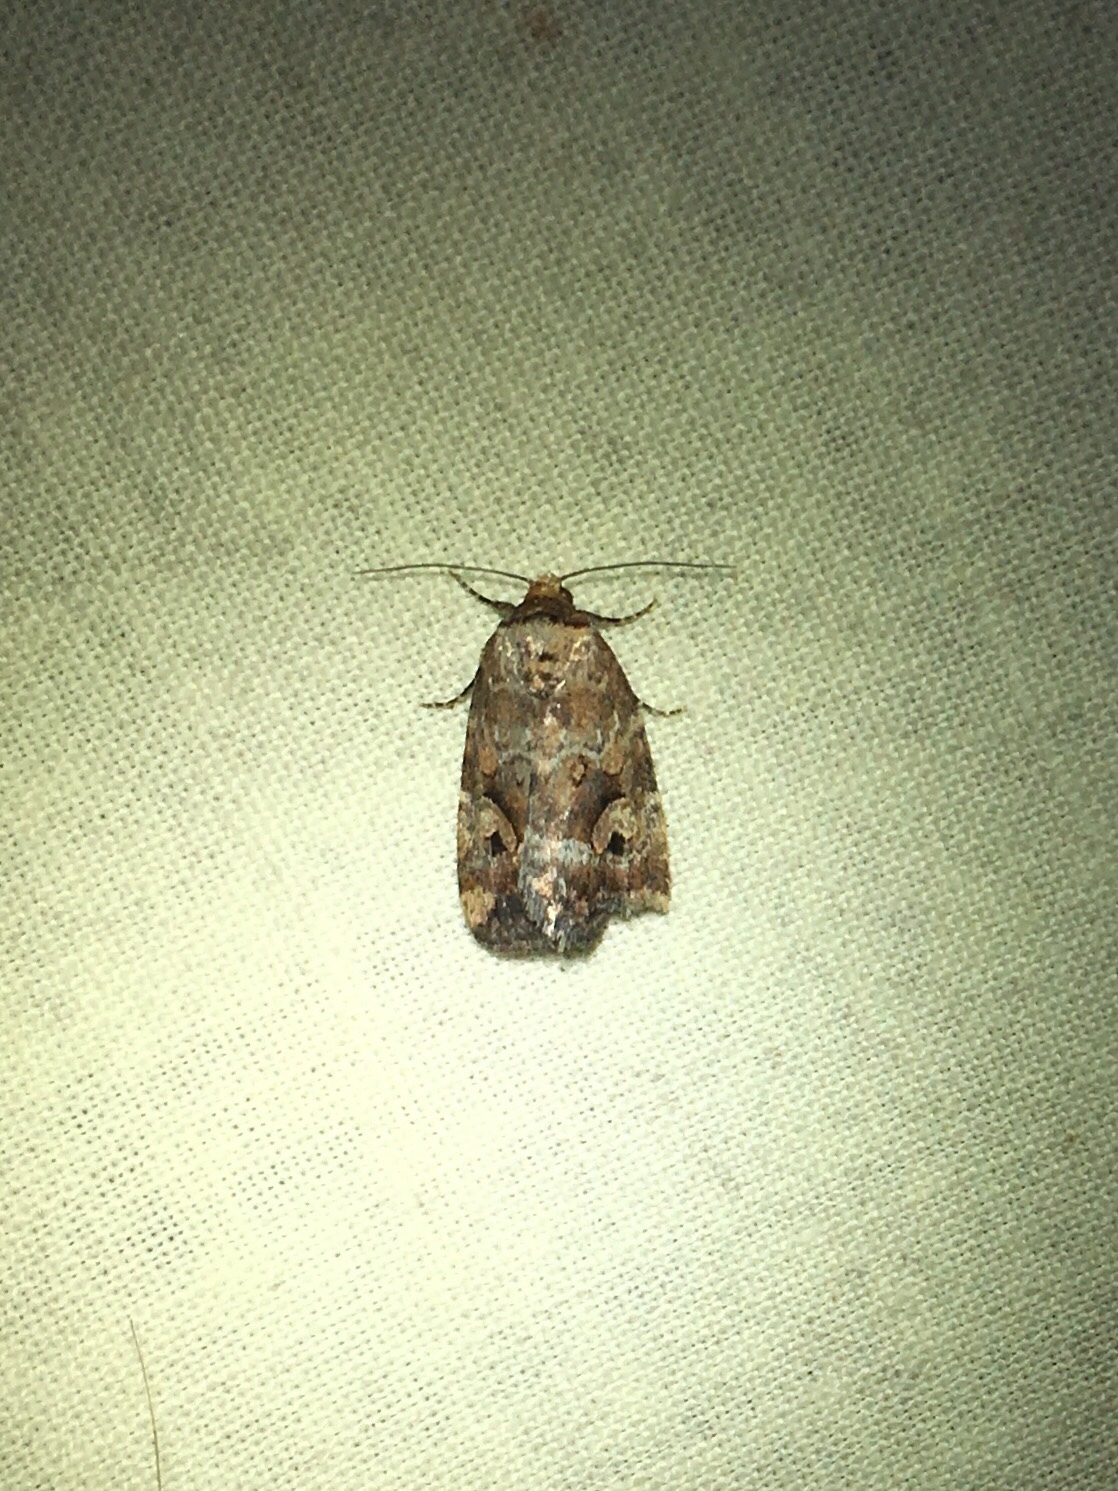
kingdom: Animalia
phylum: Arthropoda
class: Insecta
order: Lepidoptera
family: Noctuidae
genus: Elaphria
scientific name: Elaphria alapallida
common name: Pale-winged midget
